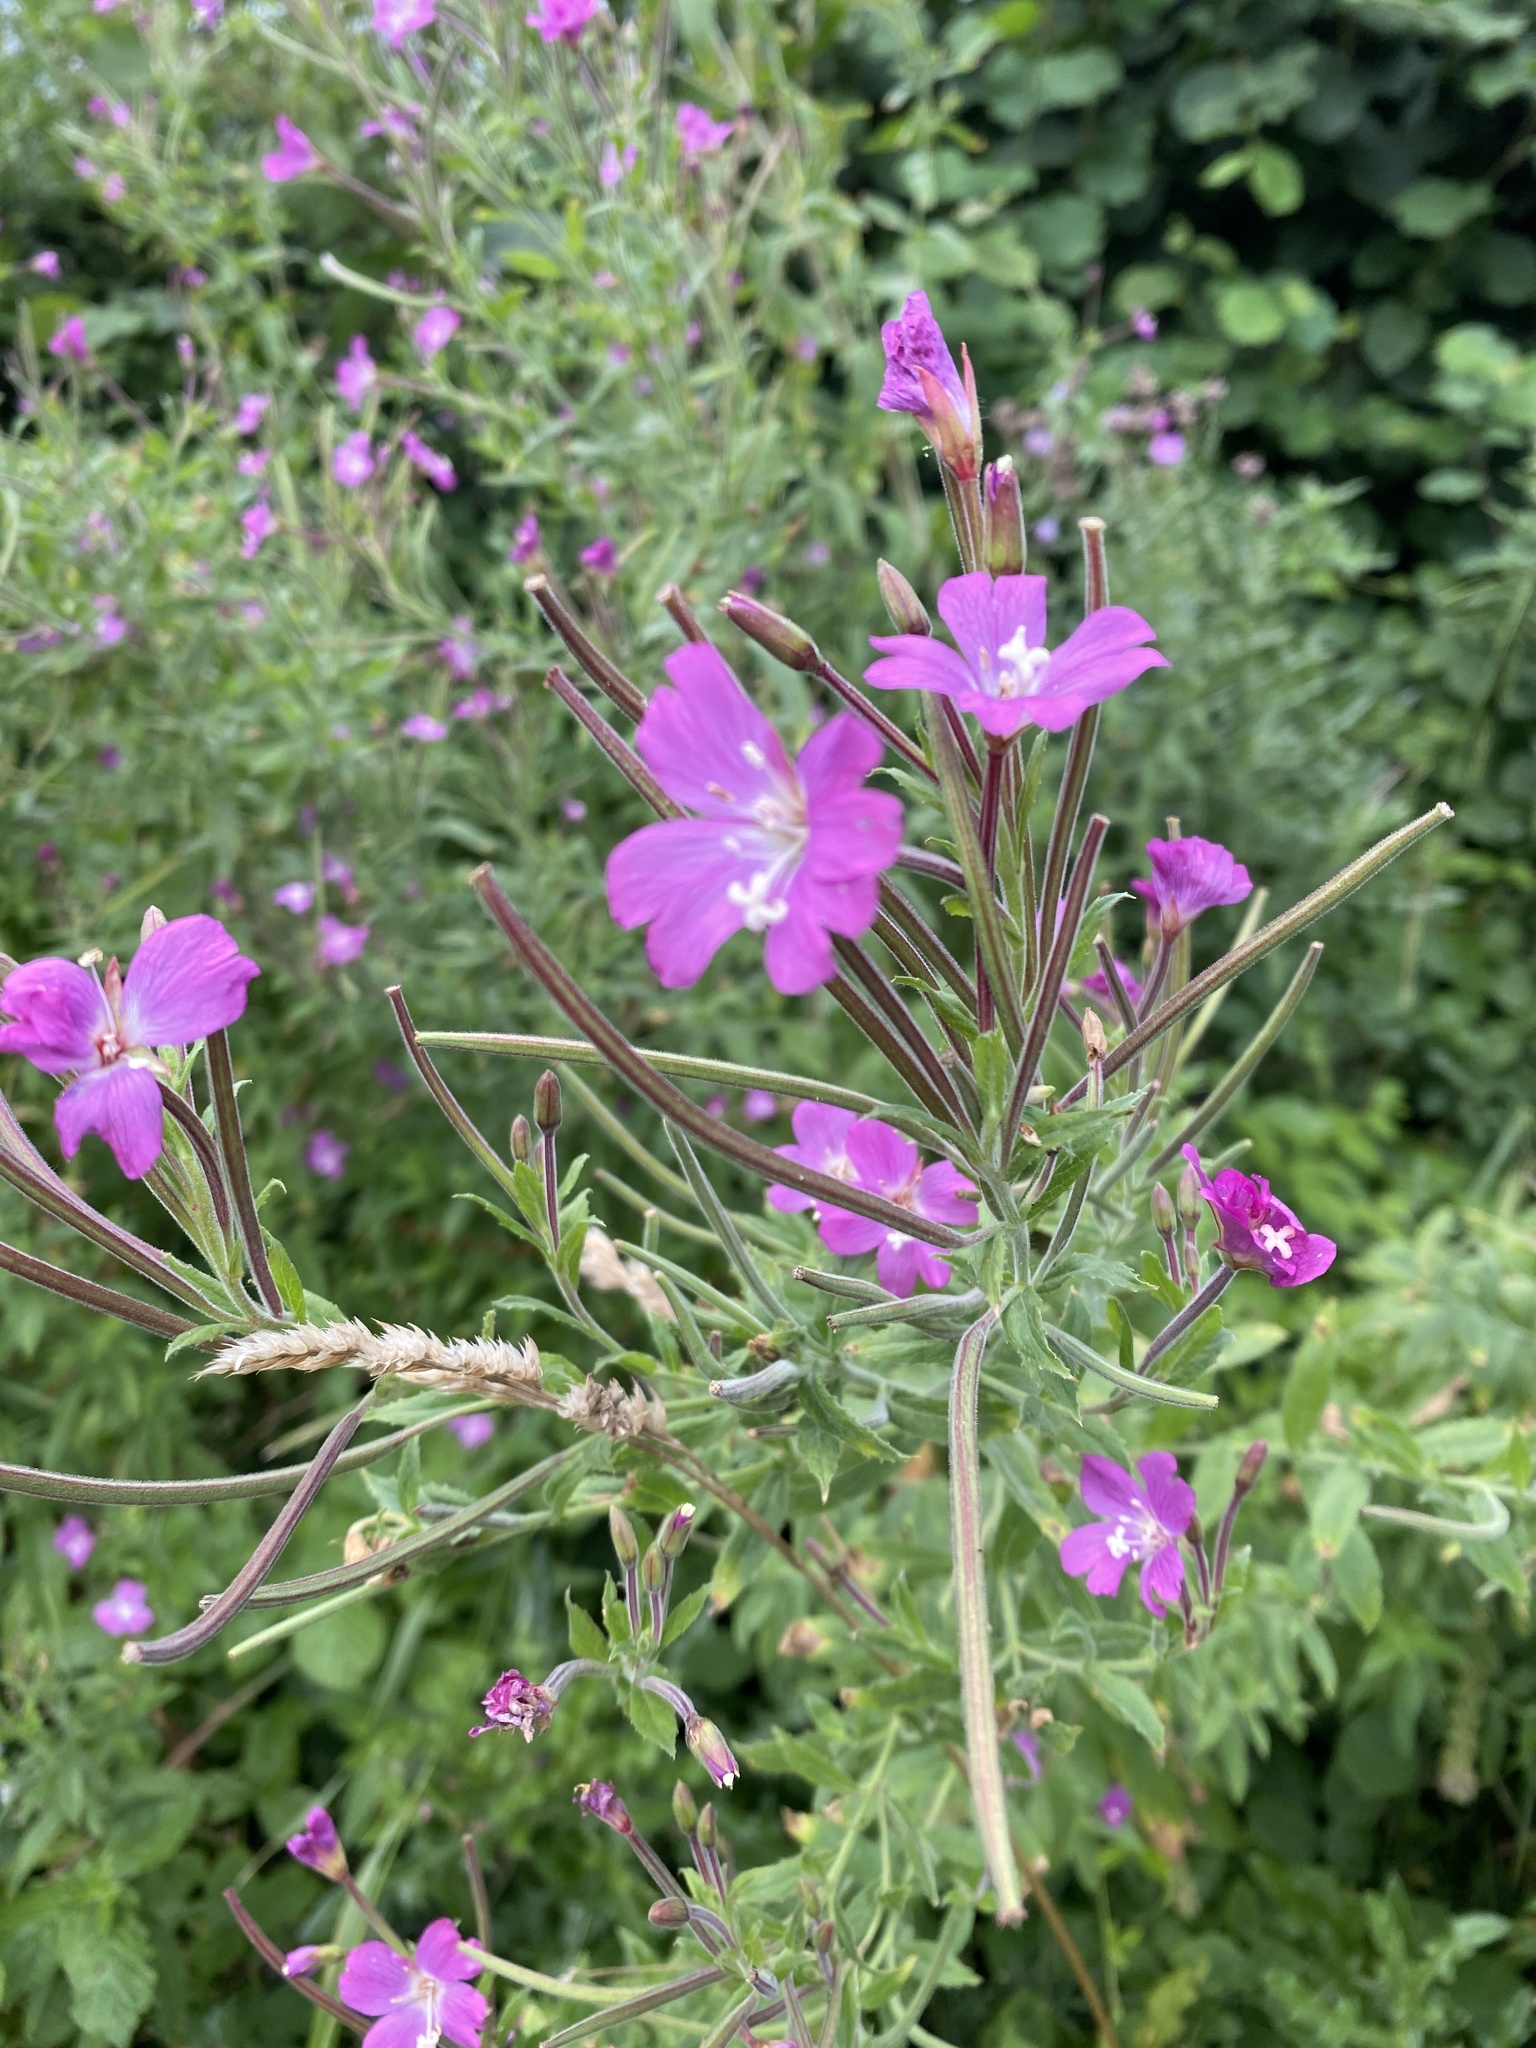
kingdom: Plantae
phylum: Tracheophyta
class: Magnoliopsida
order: Myrtales
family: Onagraceae
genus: Epilobium
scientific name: Epilobium hirsutum
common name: Great willowherb
